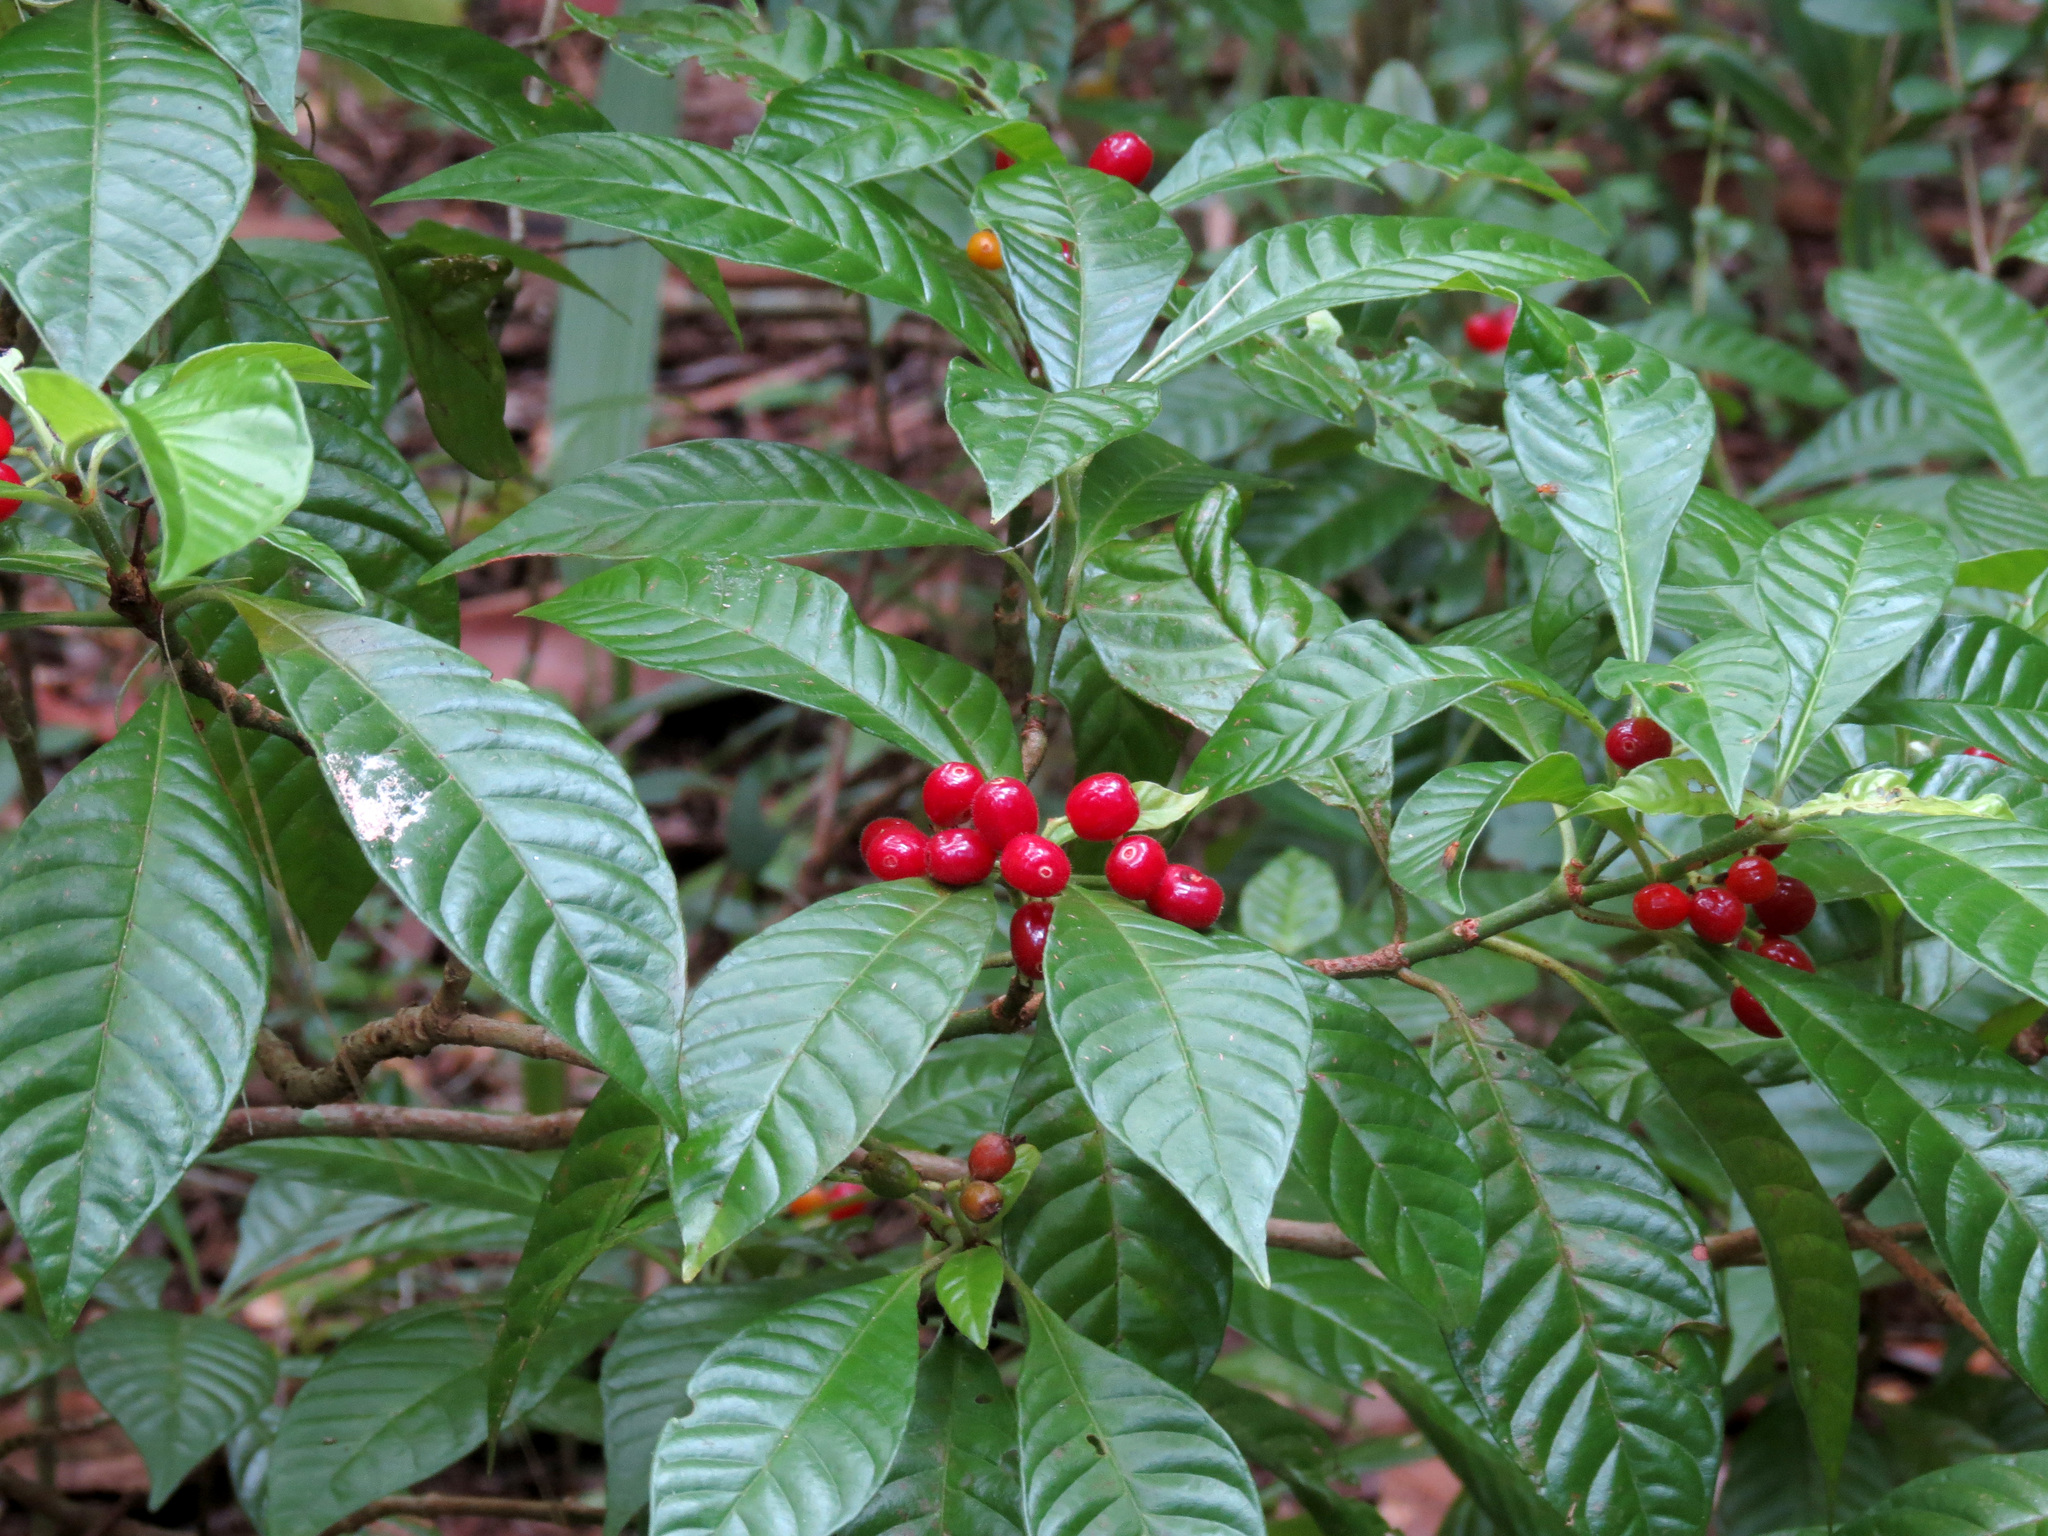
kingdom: Plantae
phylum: Tracheophyta
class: Magnoliopsida
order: Gentianales
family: Rubiaceae
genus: Psychotria
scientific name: Psychotria nervosa
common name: Bastard cankerberry
